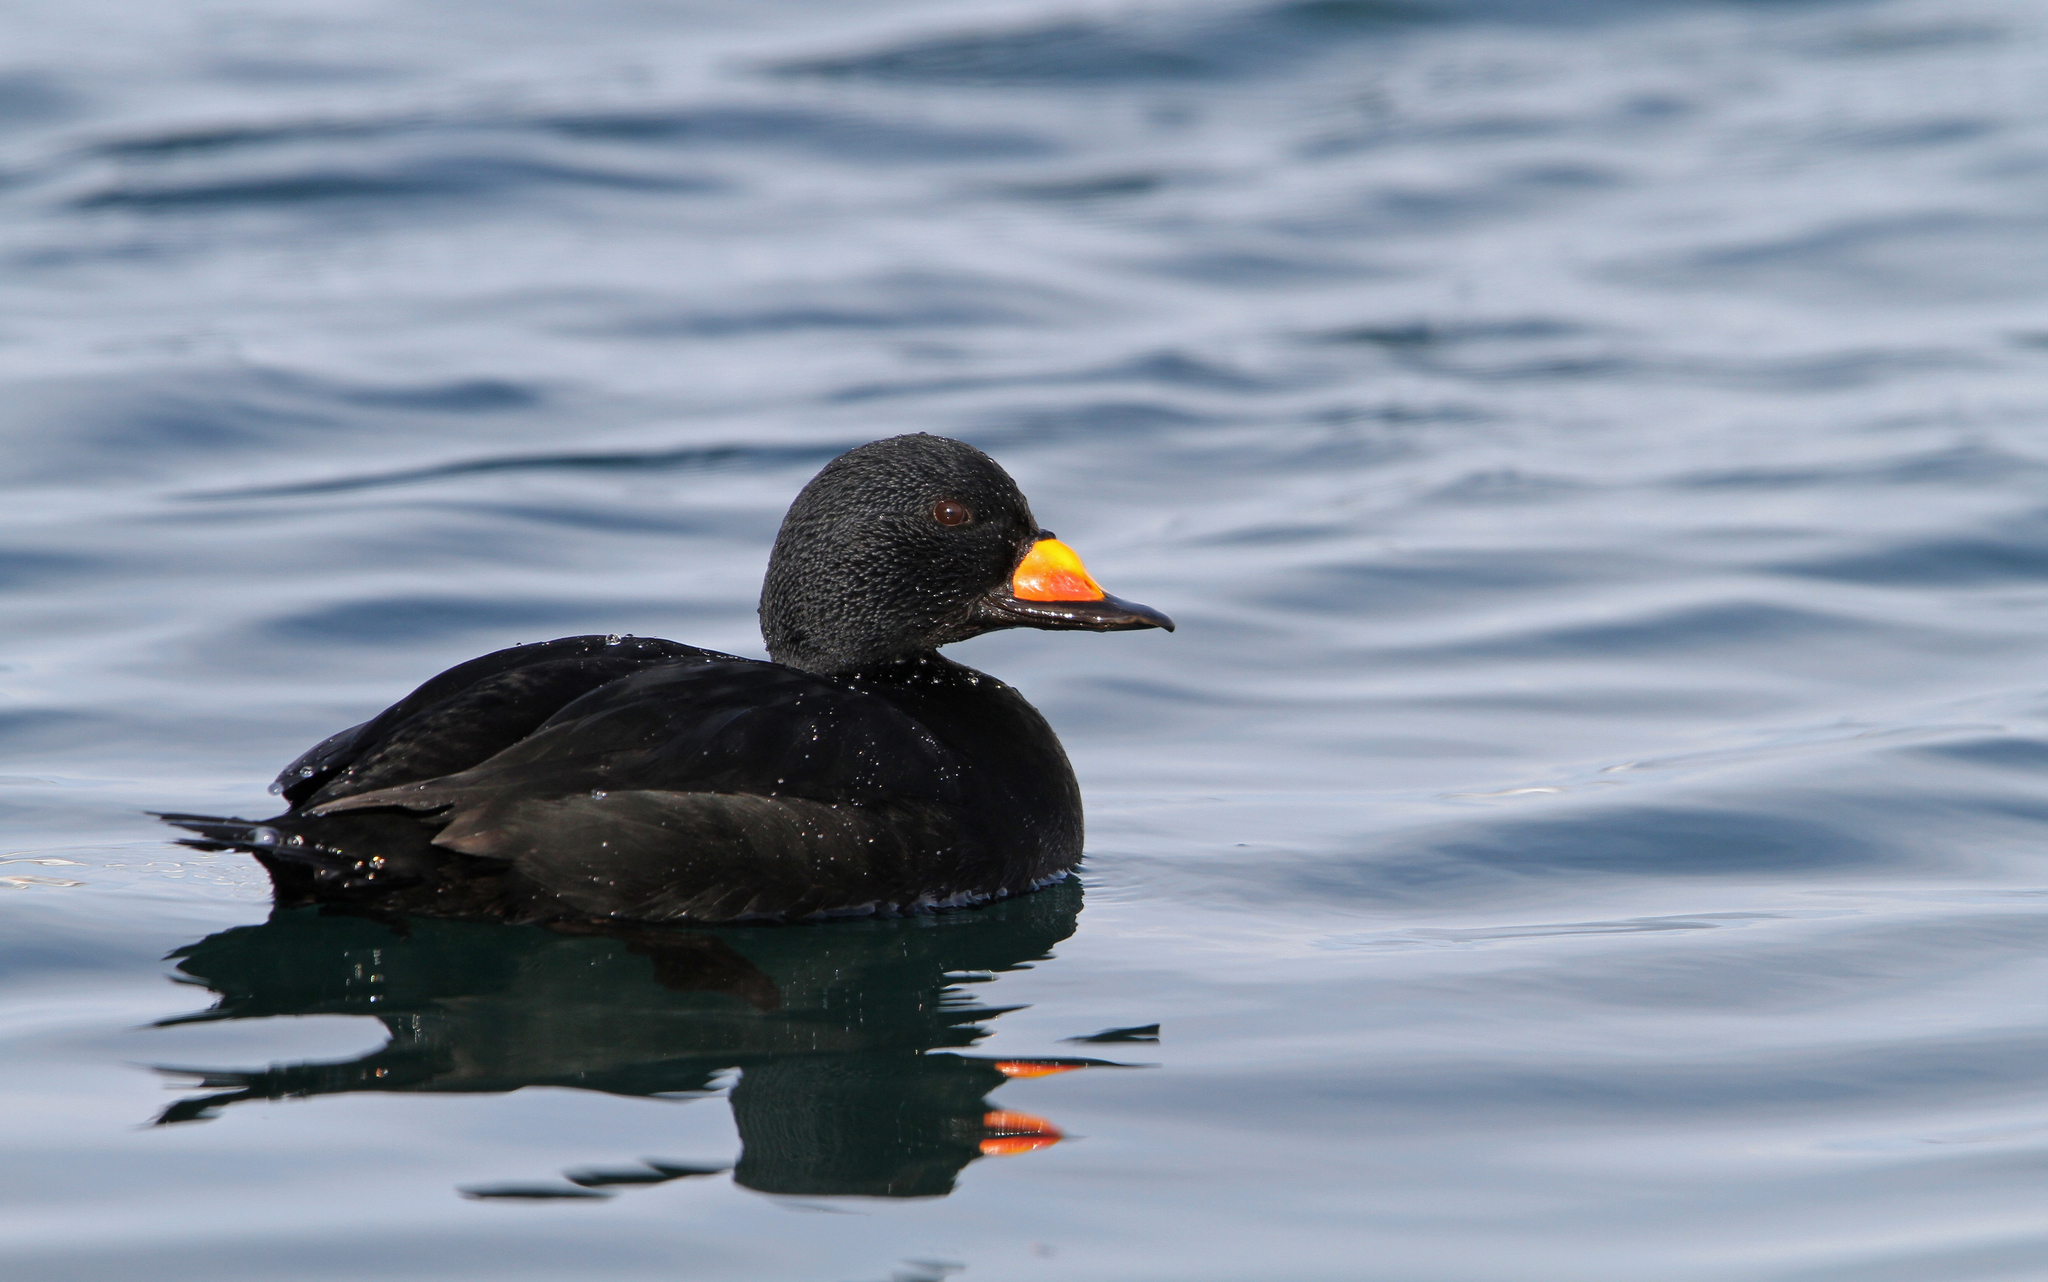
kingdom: Animalia
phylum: Chordata
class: Aves
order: Anseriformes
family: Anatidae
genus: Melanitta
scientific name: Melanitta americana
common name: Black scoter
